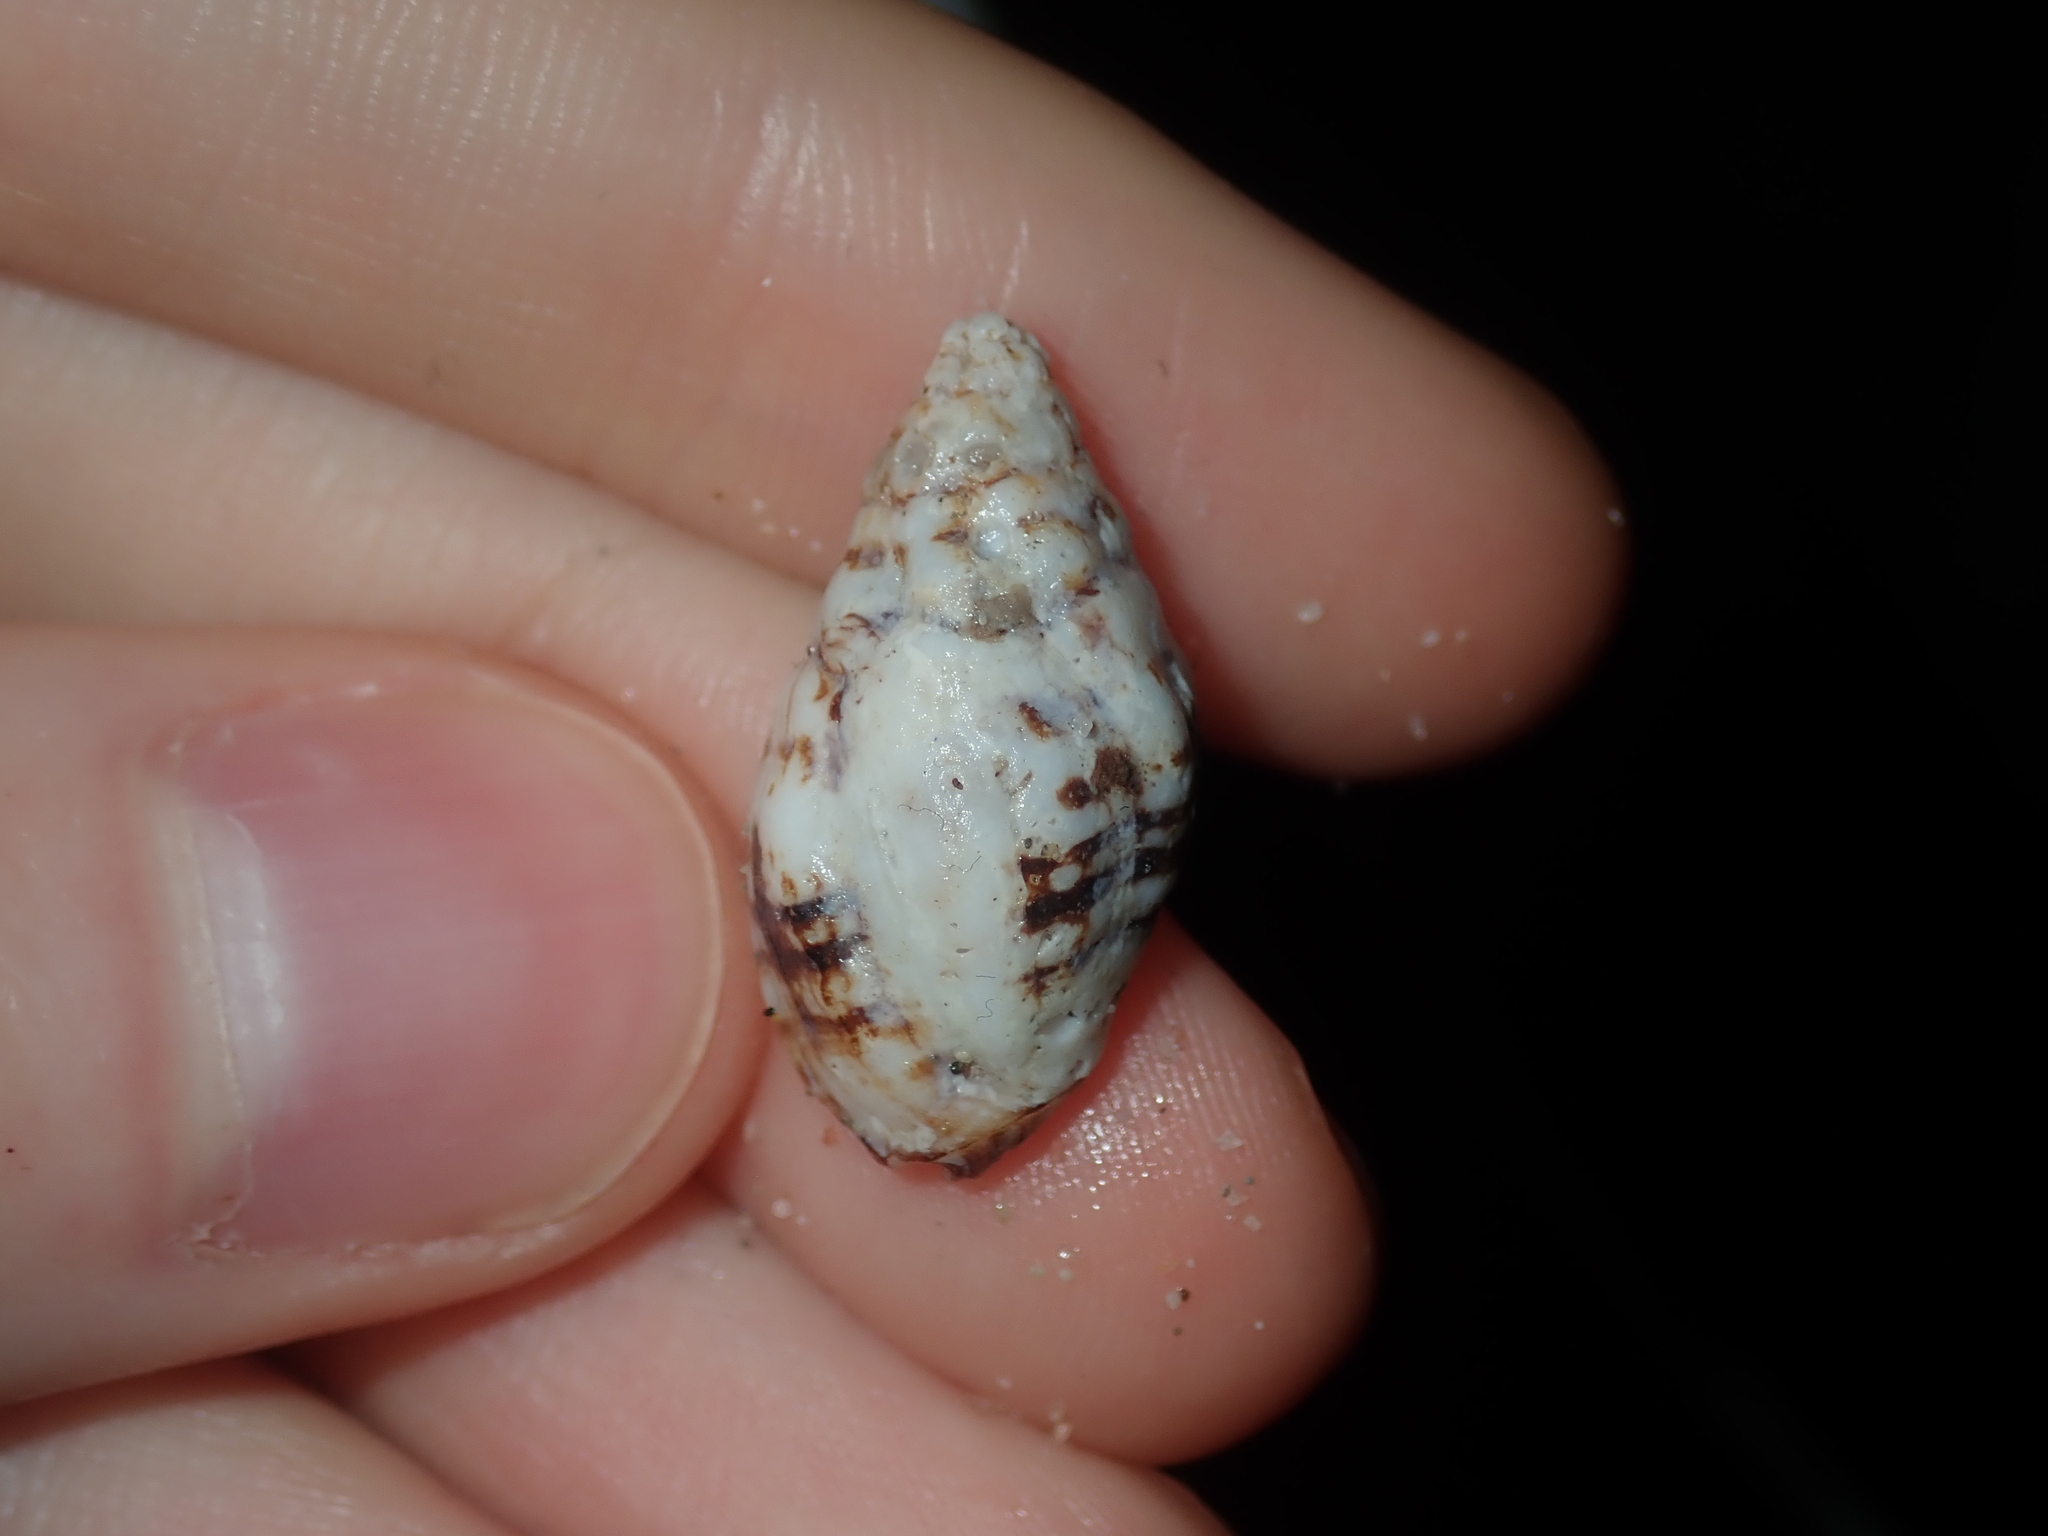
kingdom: Animalia
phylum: Mollusca
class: Gastropoda
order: Neogastropoda
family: Muricidae
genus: Cronia
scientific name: Cronia avellana
